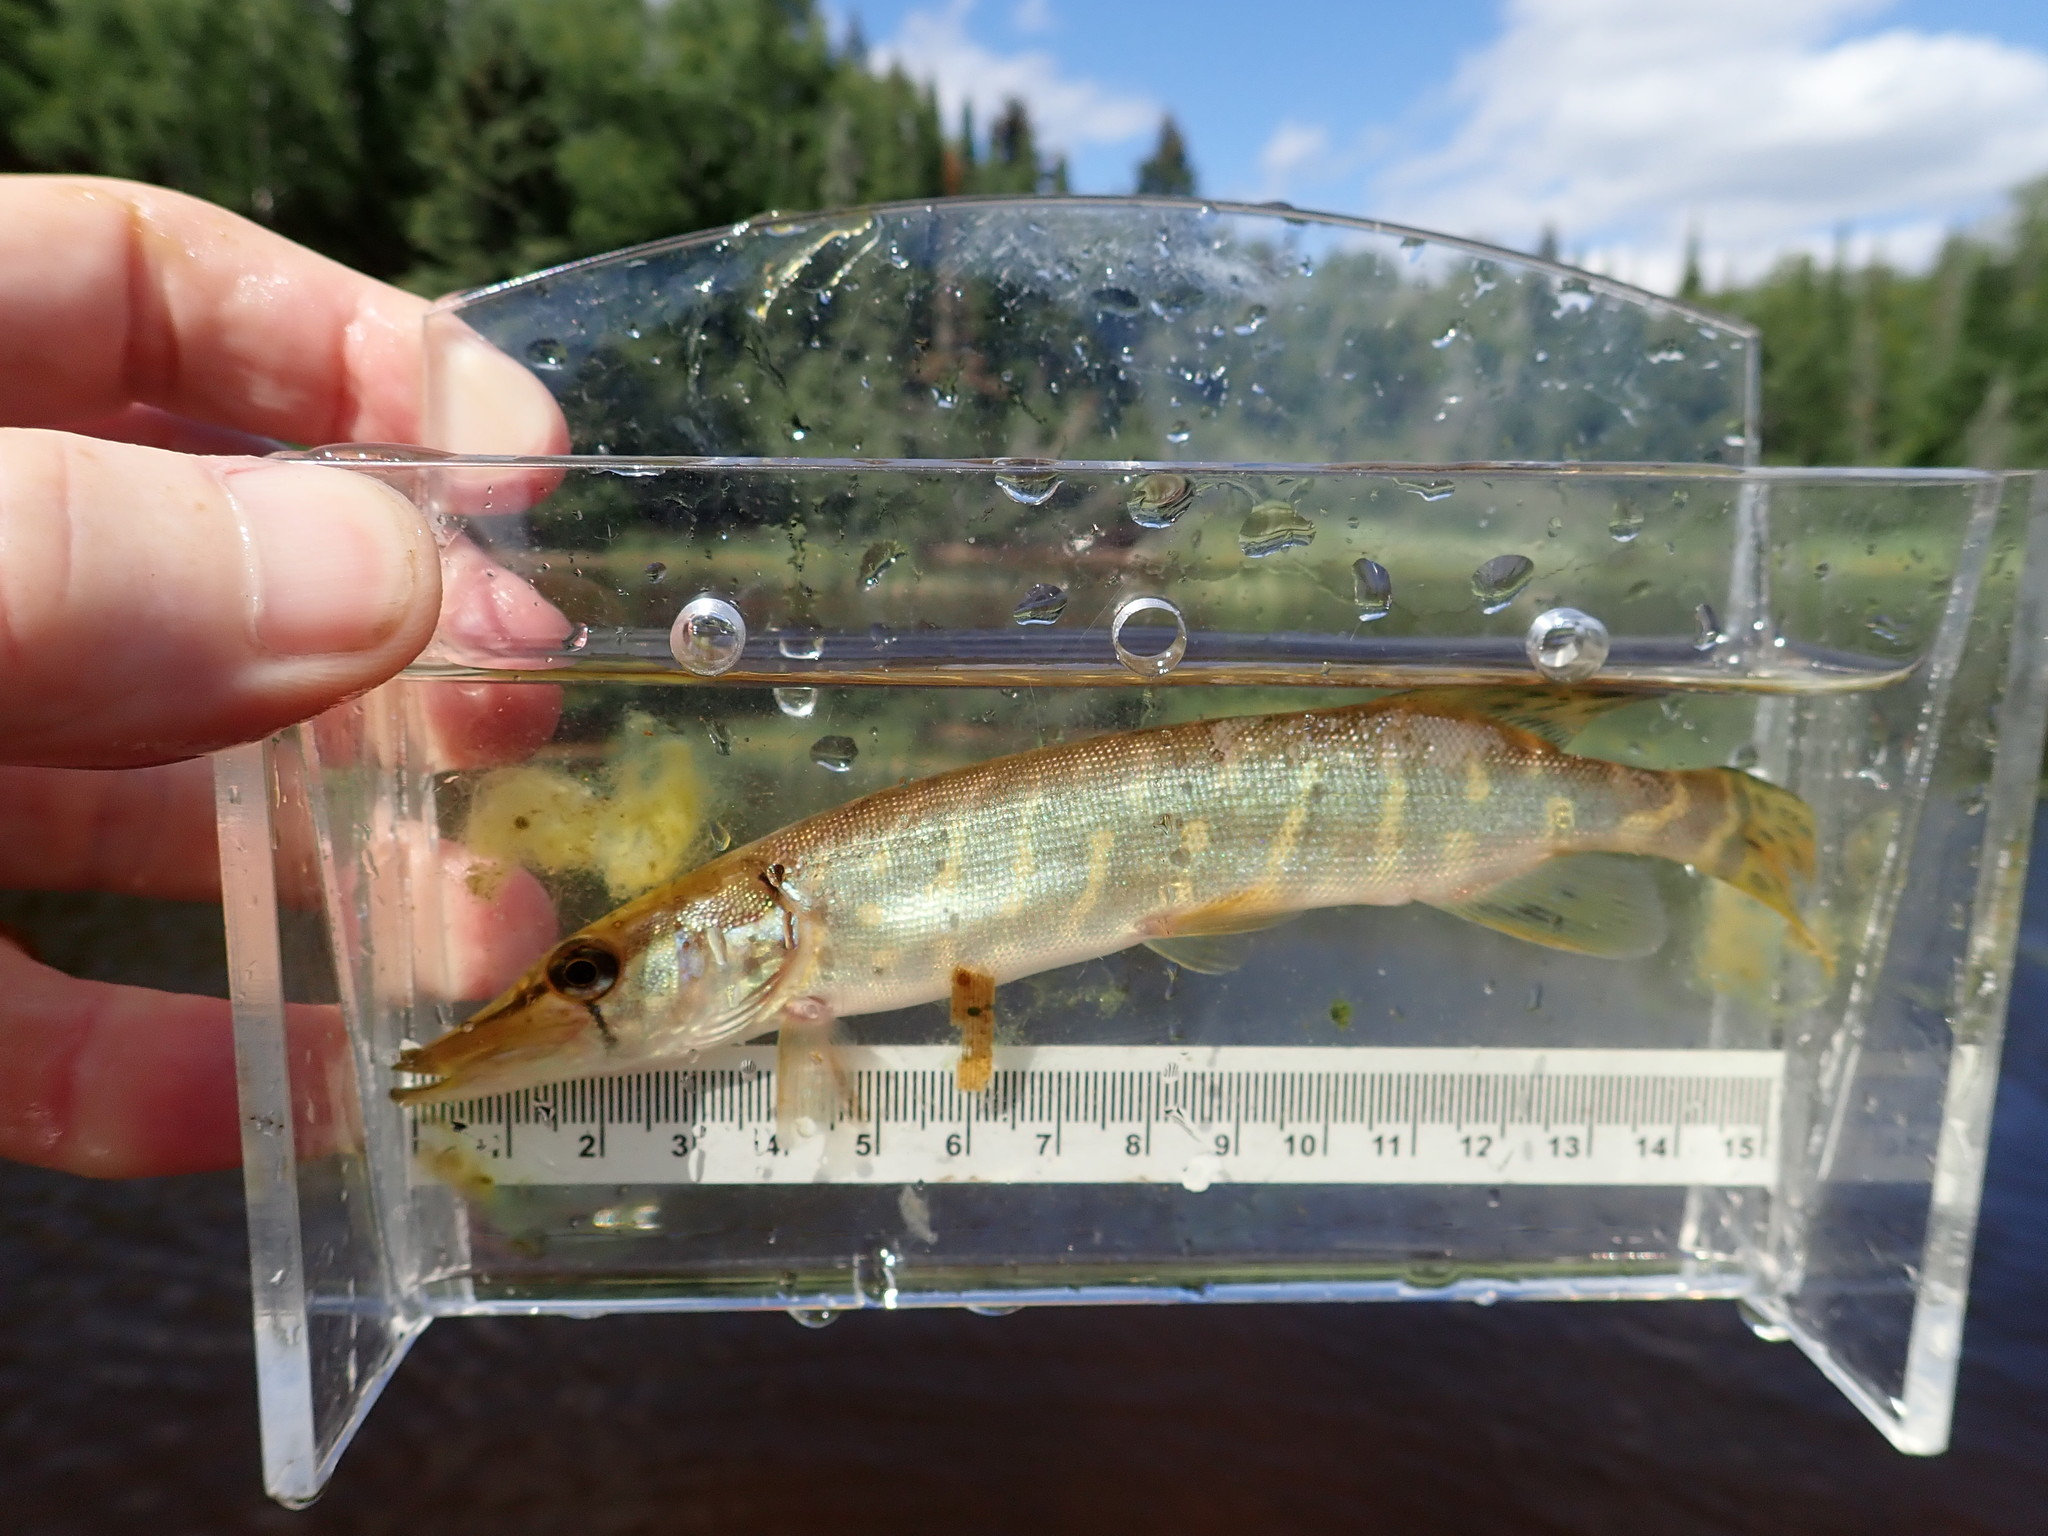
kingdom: Animalia
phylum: Chordata
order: Esociformes
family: Esocidae
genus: Esox
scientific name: Esox lucius
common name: Northern pike
